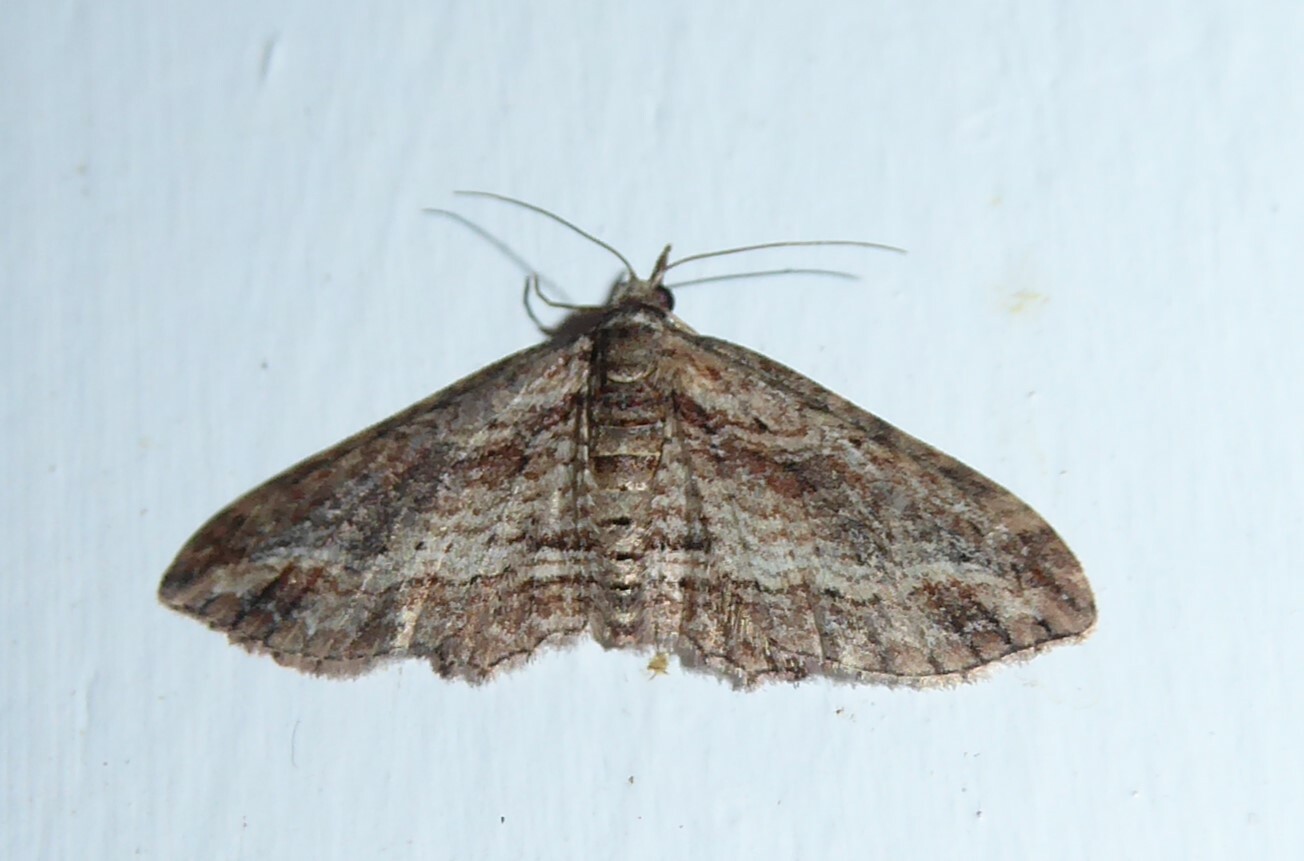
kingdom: Animalia
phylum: Arthropoda
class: Insecta
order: Lepidoptera
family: Geometridae
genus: Chloroclystis
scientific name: Chloroclystis filata
